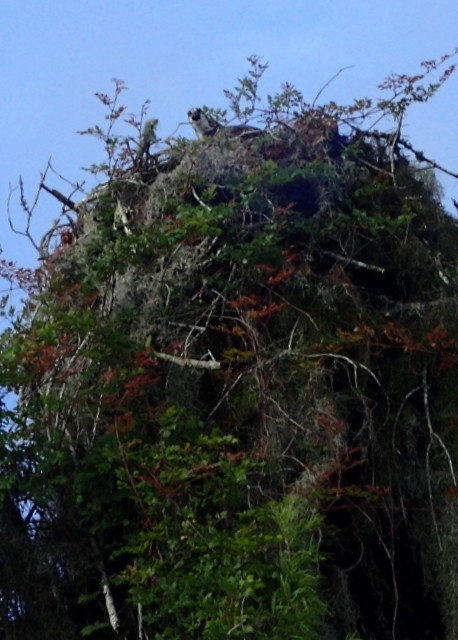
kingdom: Animalia
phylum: Chordata
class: Aves
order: Accipitriformes
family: Pandionidae
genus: Pandion
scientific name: Pandion haliaetus
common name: Osprey
